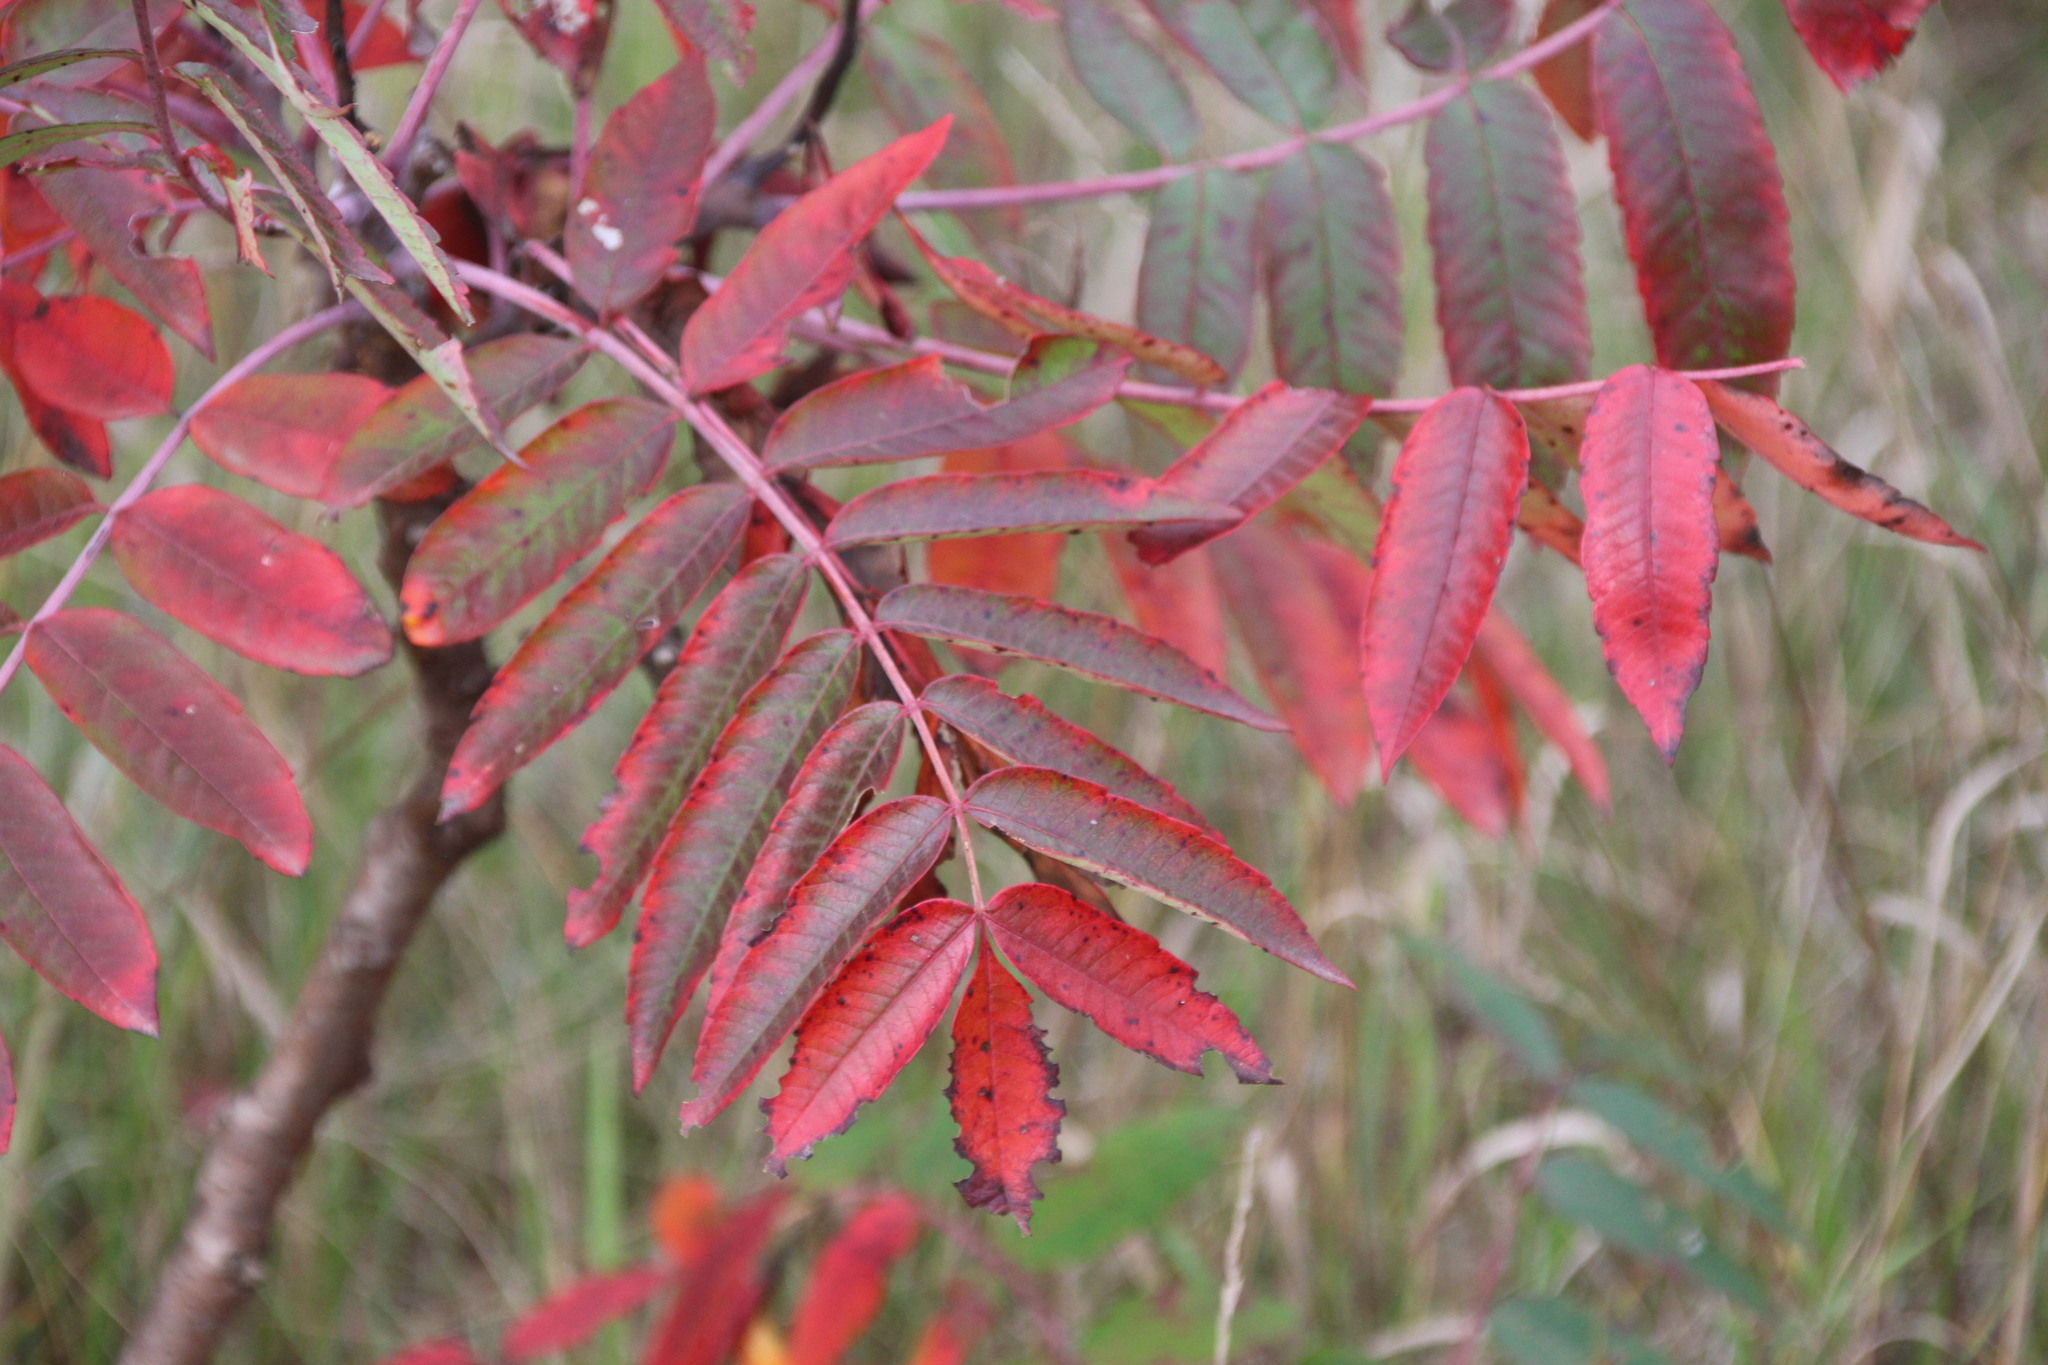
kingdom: Plantae
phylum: Tracheophyta
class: Magnoliopsida
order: Sapindales
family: Anacardiaceae
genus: Rhus
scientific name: Rhus glabra
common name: Scarlet sumac
